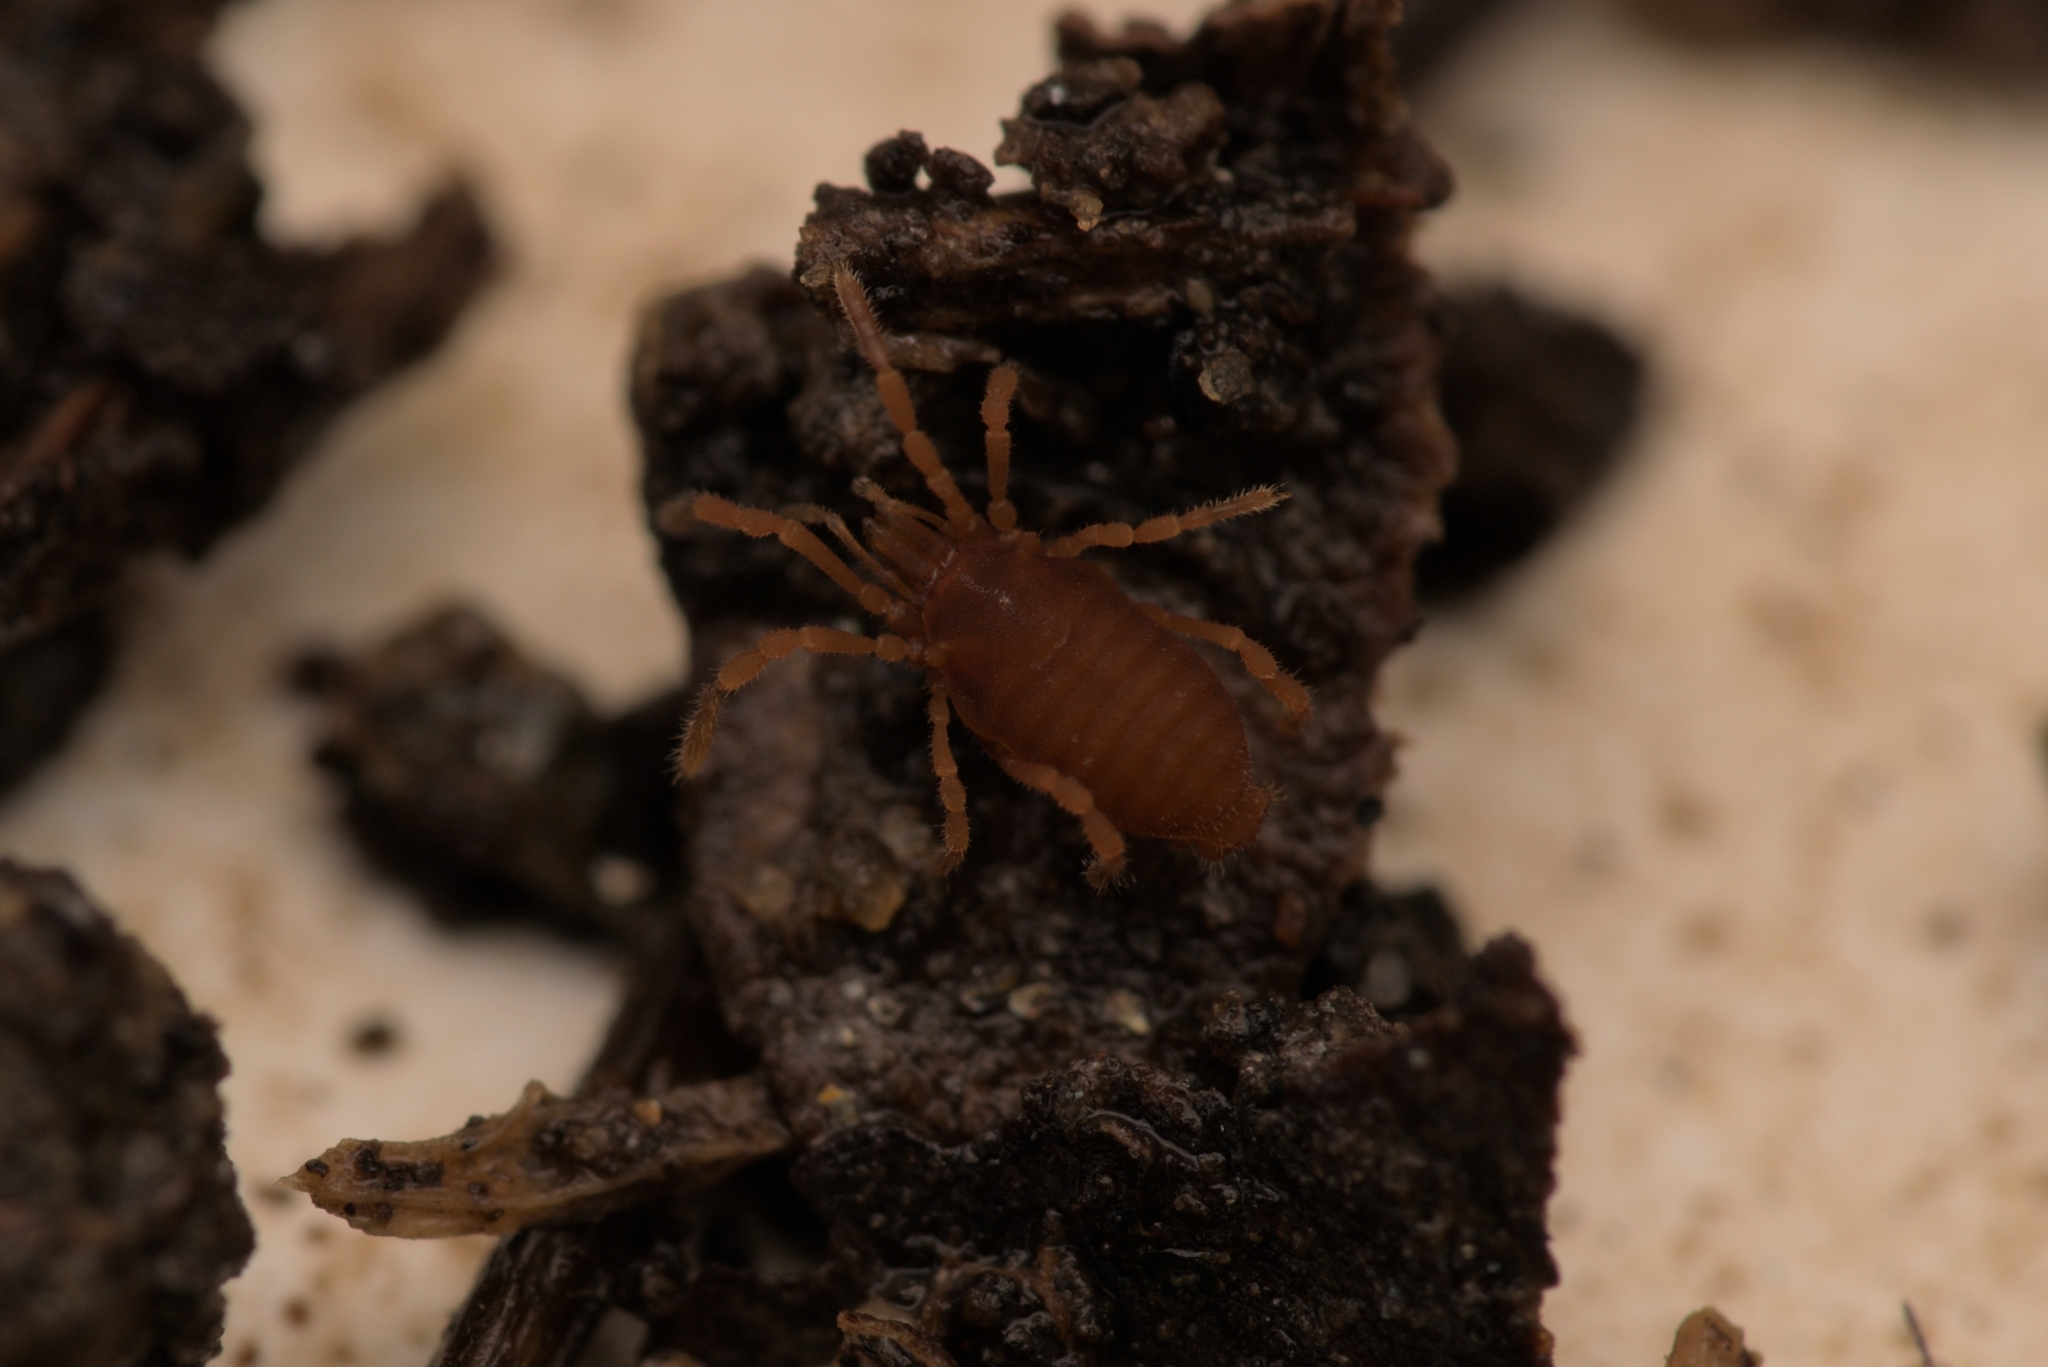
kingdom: Animalia
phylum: Arthropoda
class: Arachnida
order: Opiliones
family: Sironidae
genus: Siro
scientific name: Siro rubens
